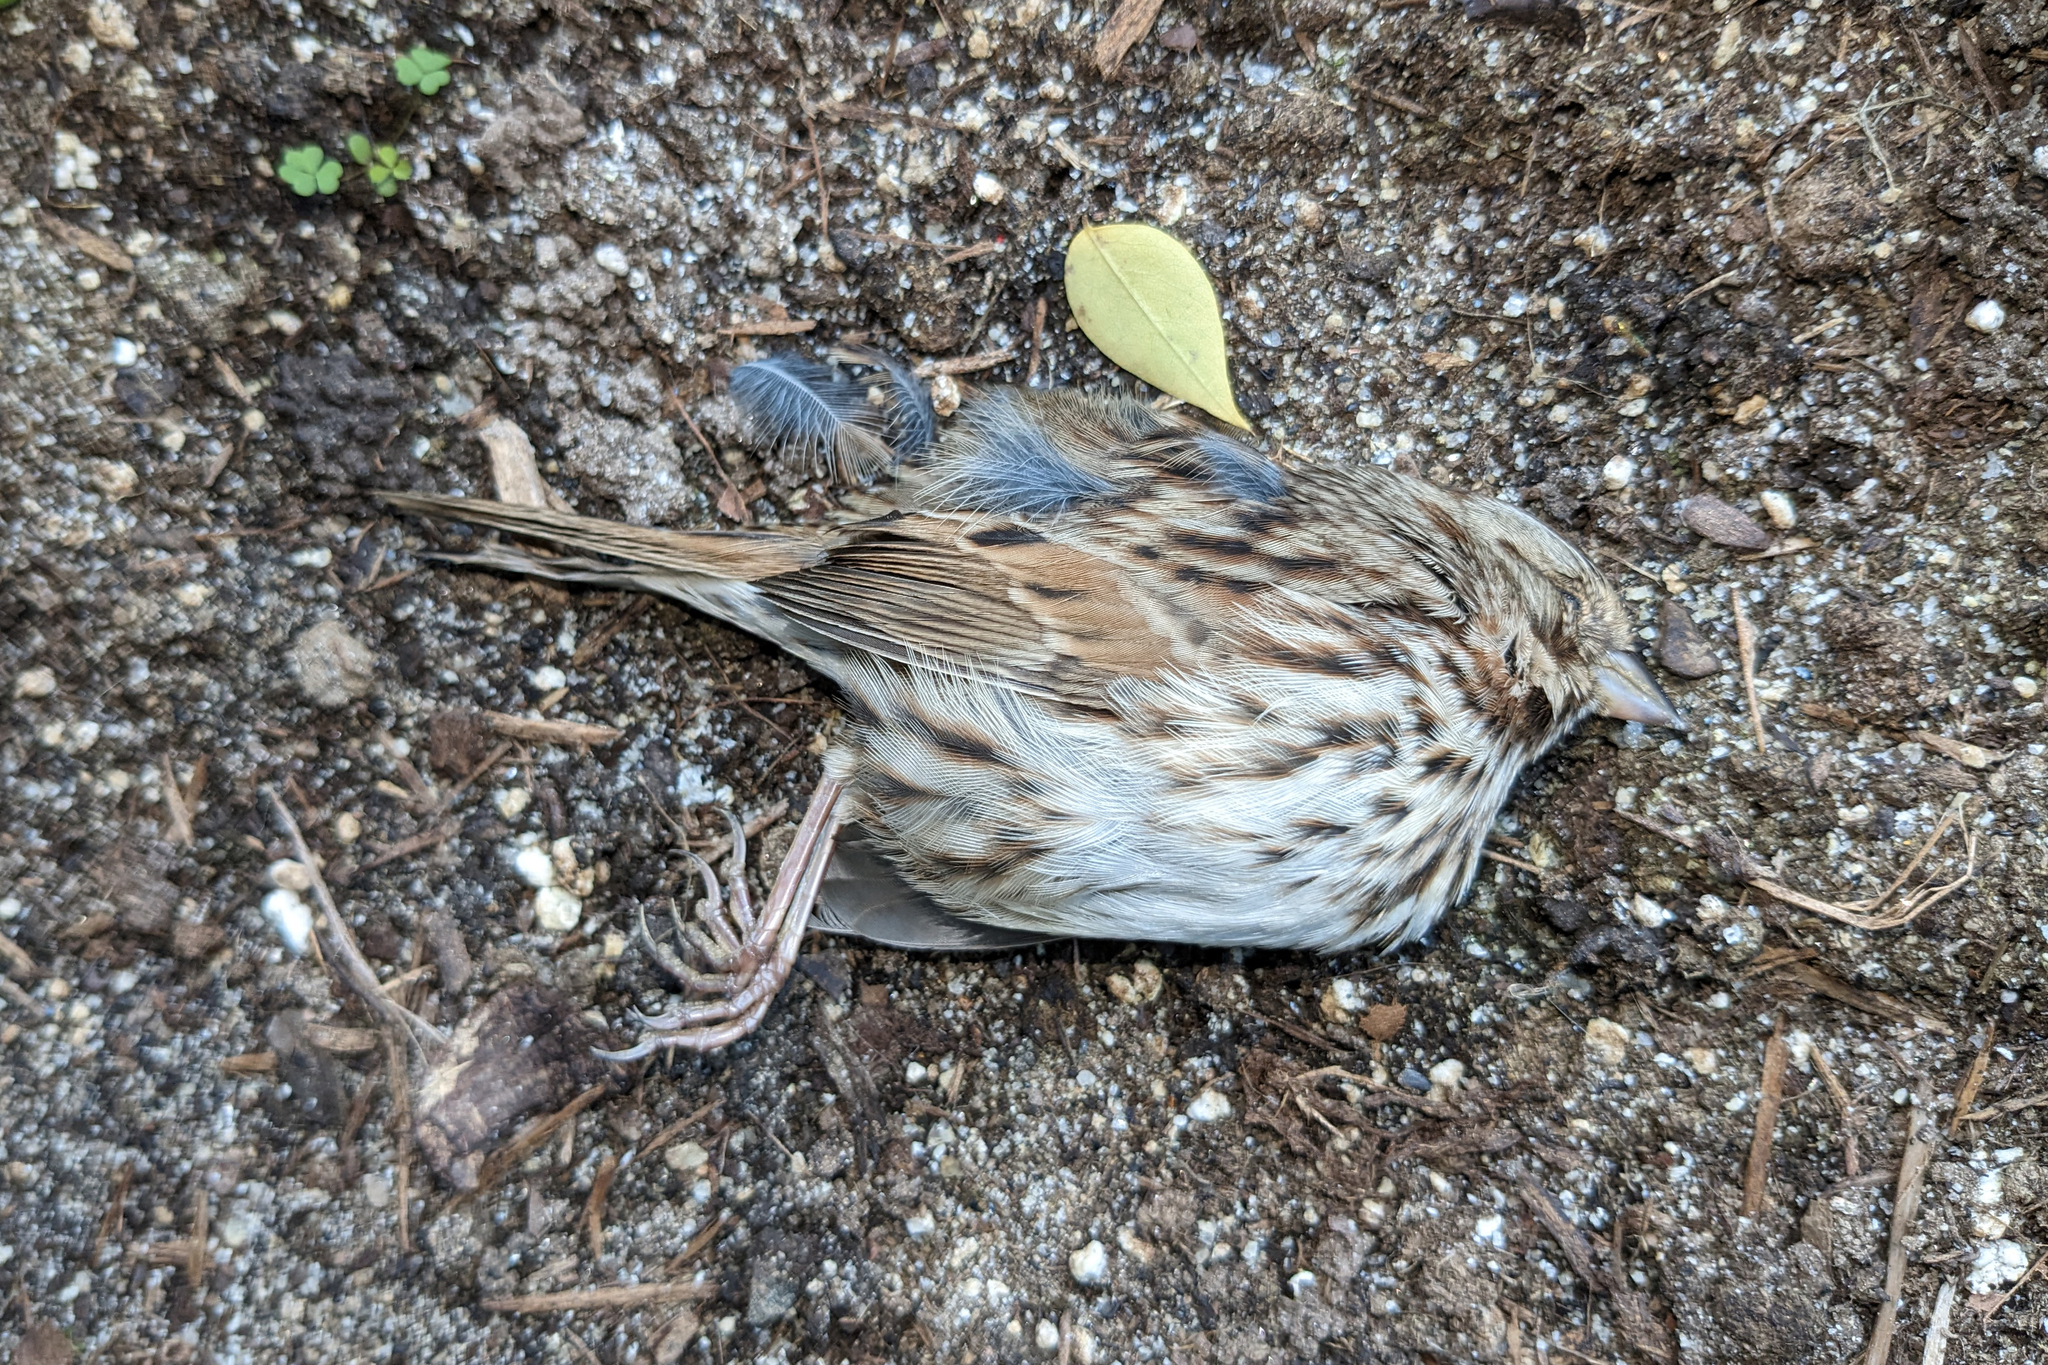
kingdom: Animalia
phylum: Chordata
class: Aves
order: Passeriformes
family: Passerellidae
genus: Melospiza
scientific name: Melospiza melodia
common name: Song sparrow
